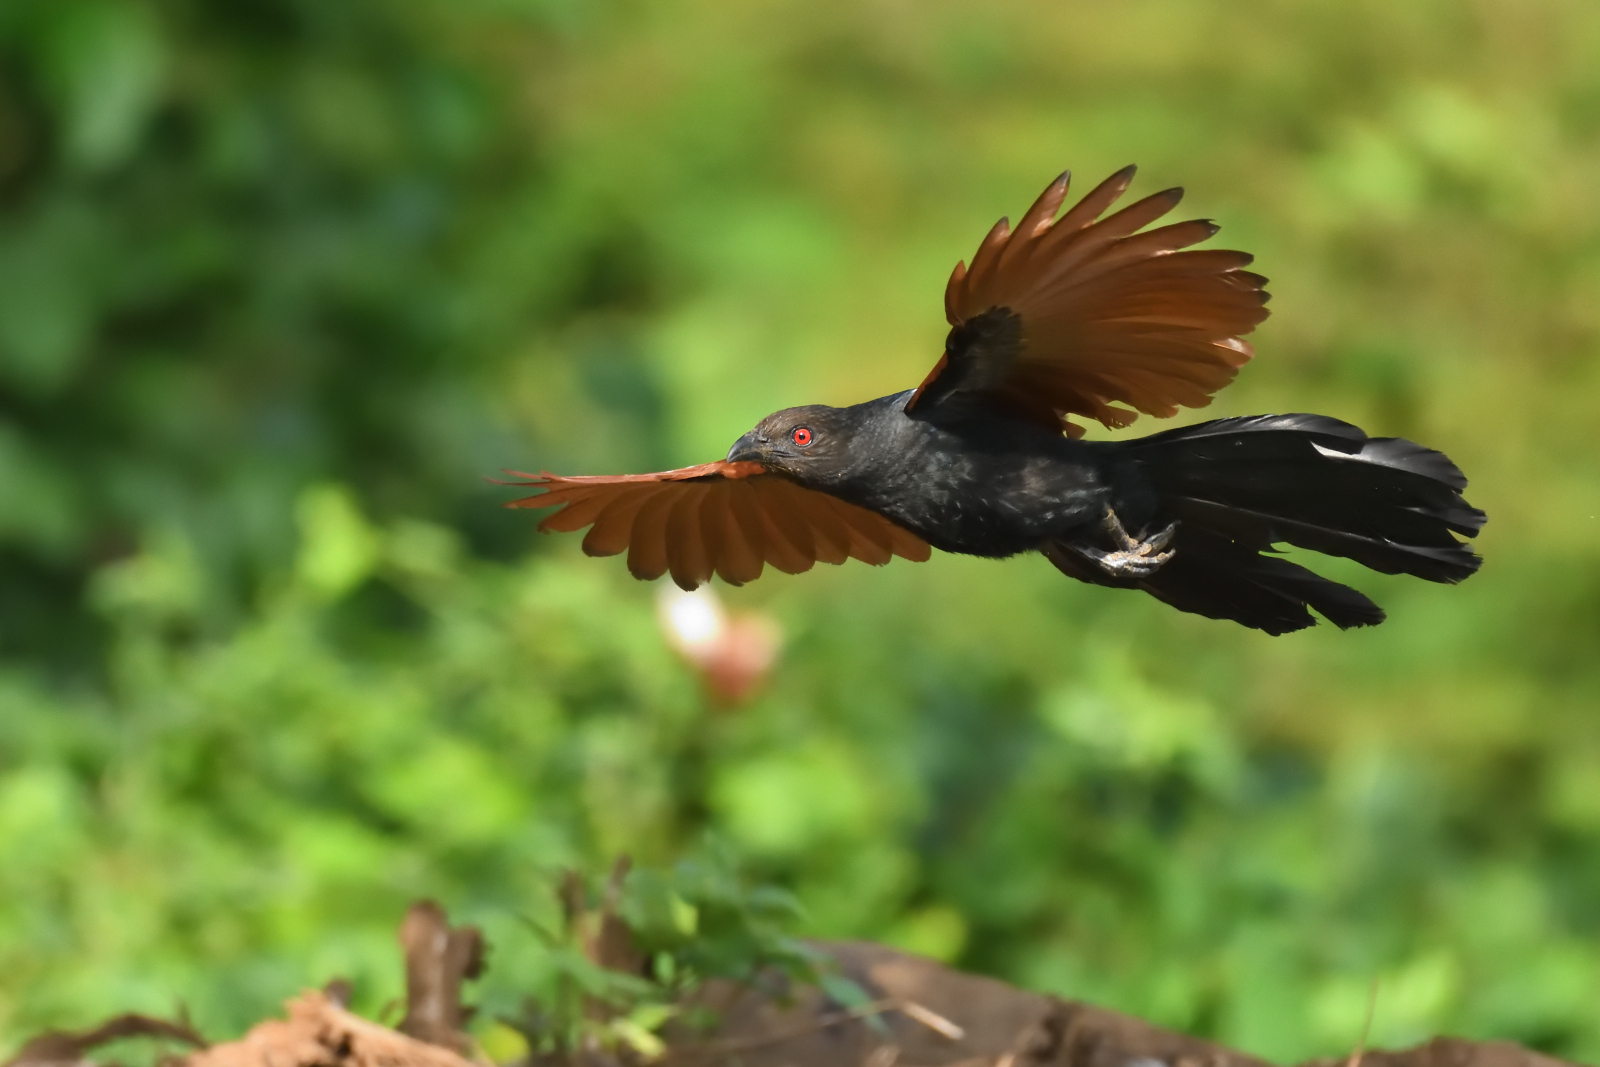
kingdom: Animalia
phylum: Chordata
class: Aves
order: Cuculiformes
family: Cuculidae
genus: Centropus
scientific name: Centropus sinensis
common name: Greater coucal
